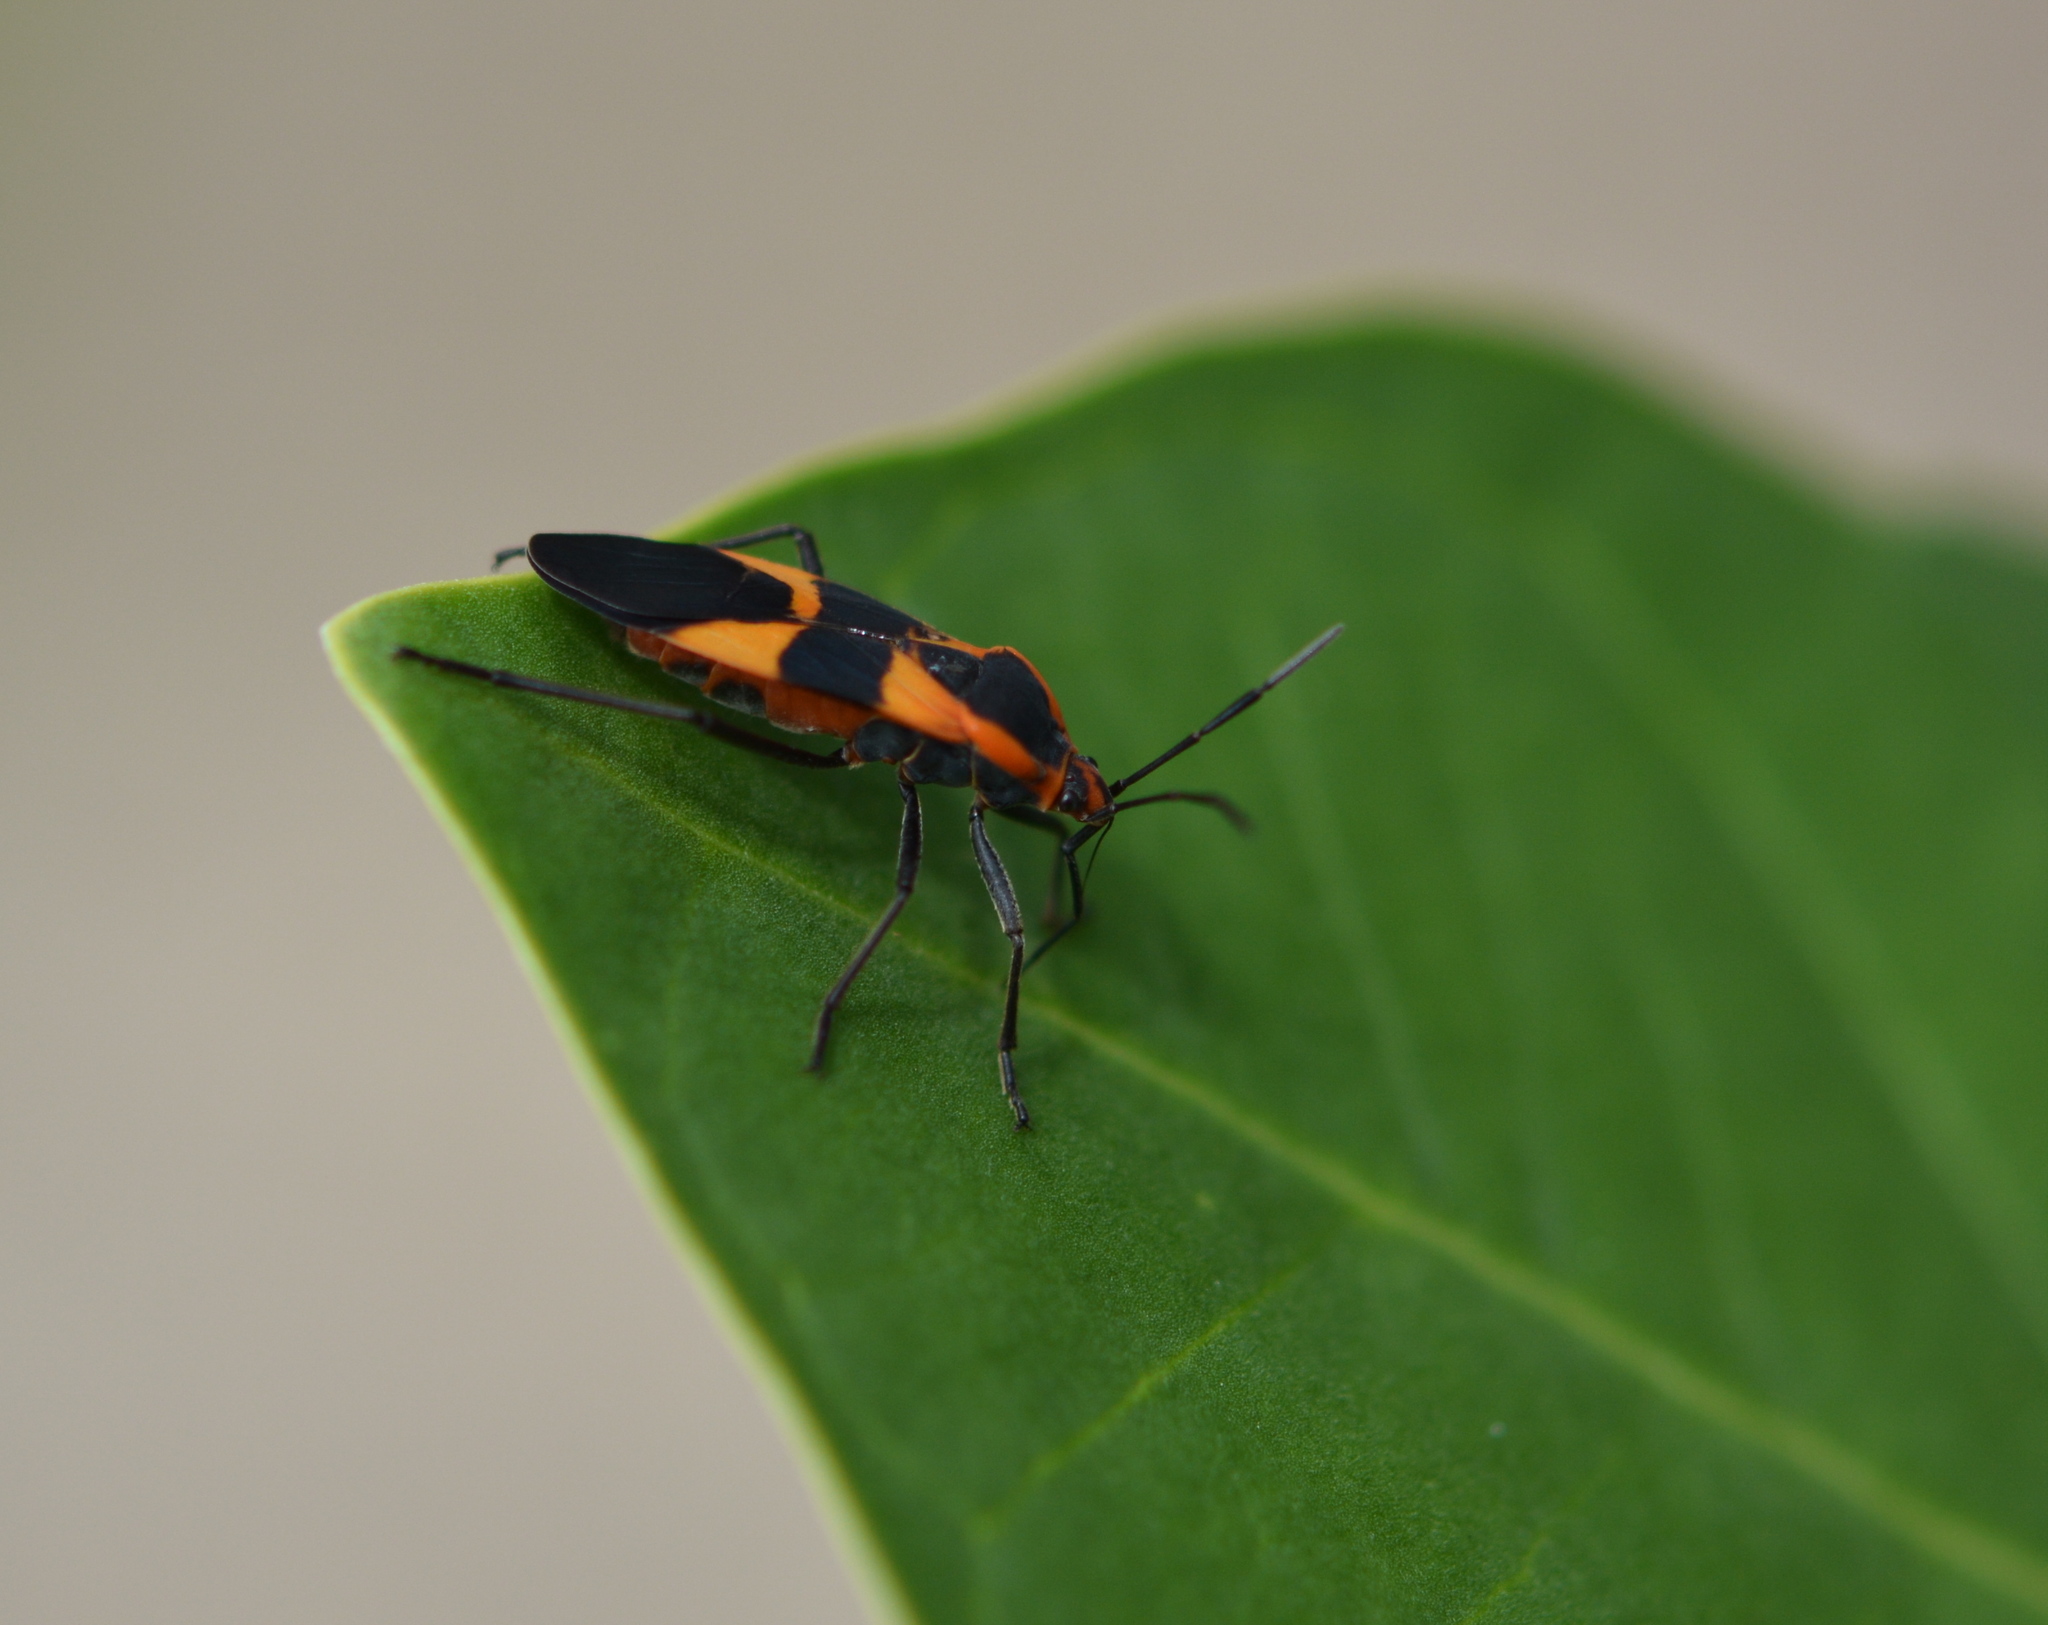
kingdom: Animalia
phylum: Arthropoda
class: Insecta
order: Hemiptera
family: Lygaeidae
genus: Oncopeltus
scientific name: Oncopeltus fasciatus
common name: Large milkweed bug
